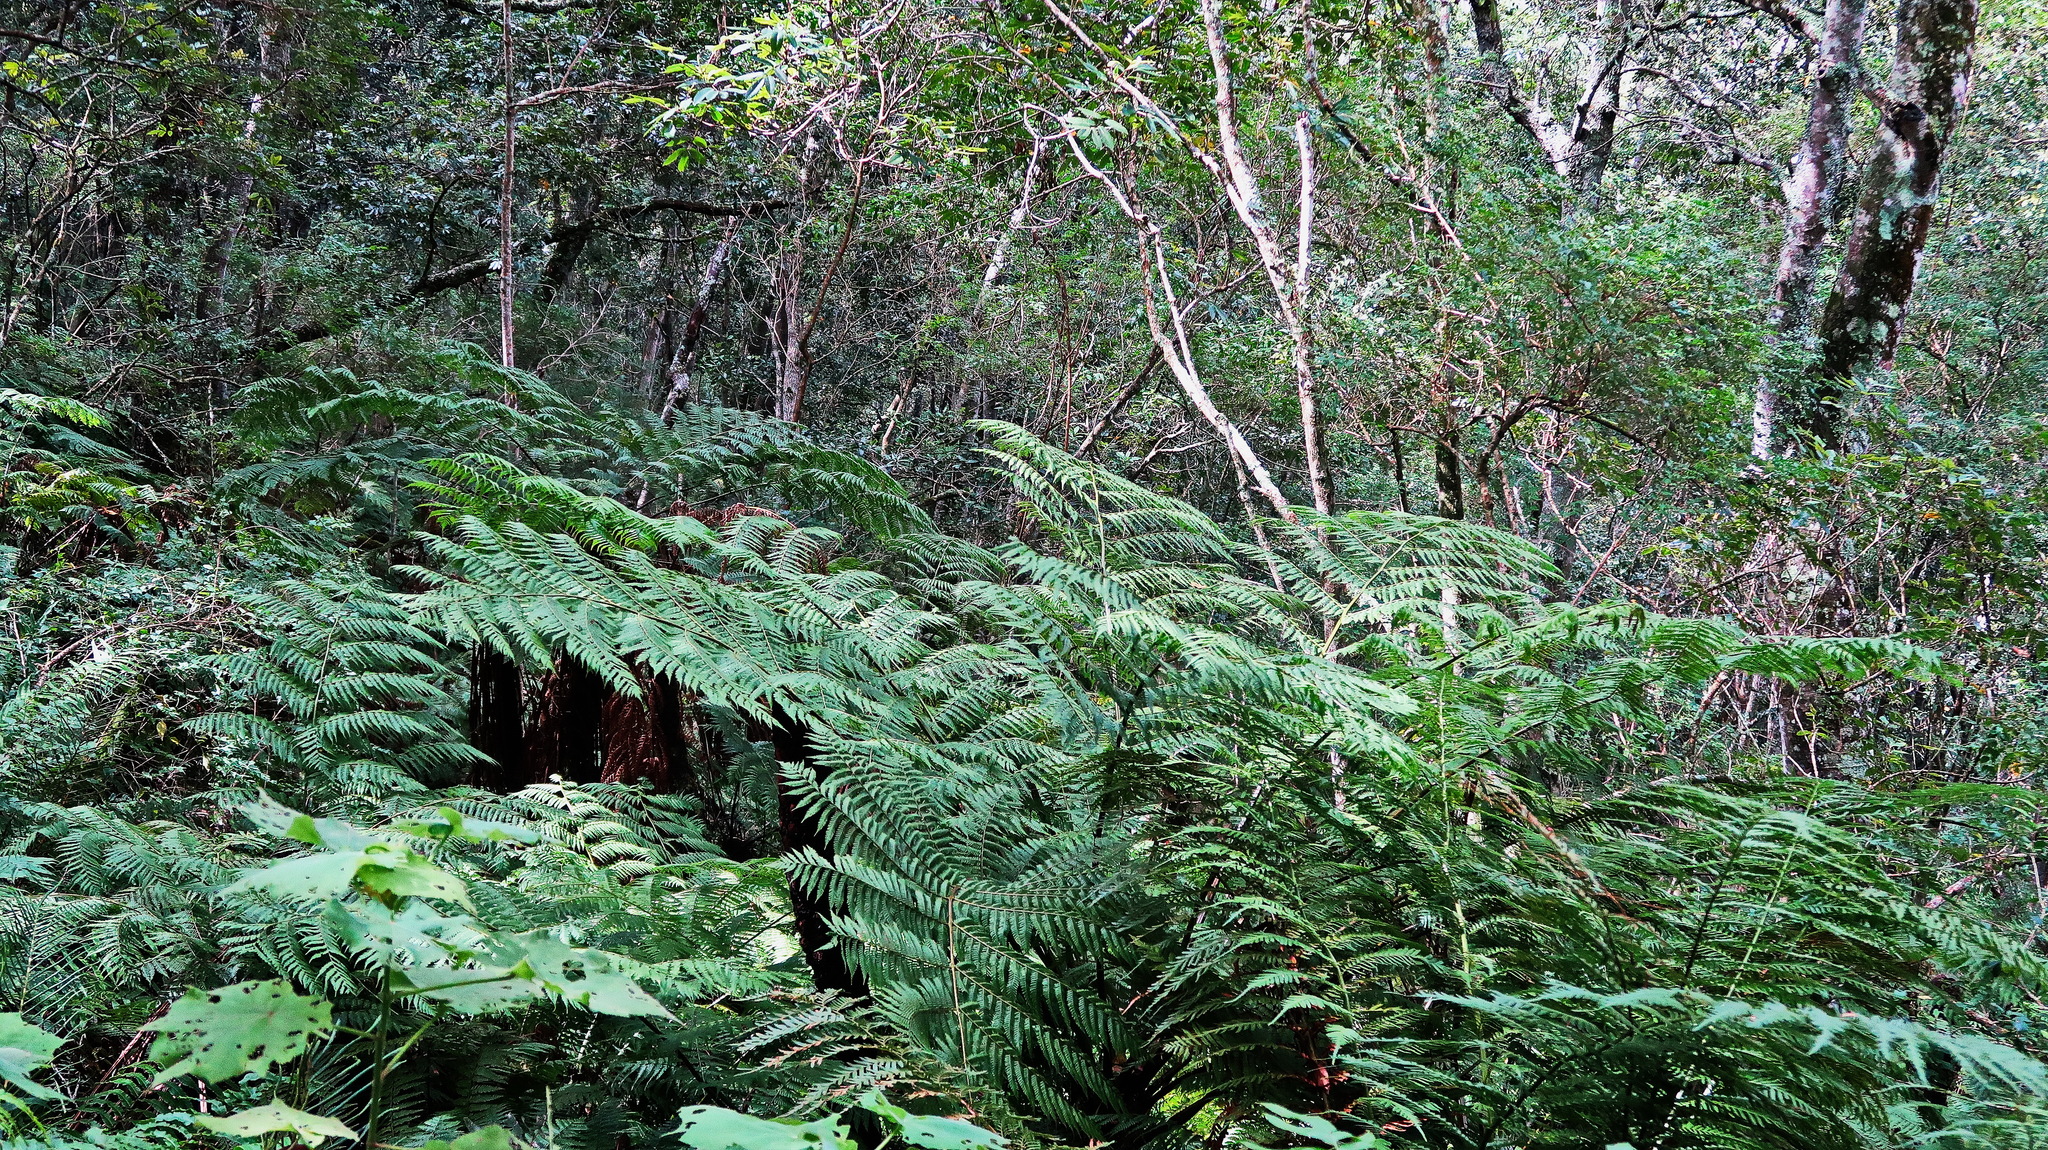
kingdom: Plantae
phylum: Tracheophyta
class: Polypodiopsida
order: Cyatheales
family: Cyatheaceae
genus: Gymnosphaera
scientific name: Gymnosphaera capensis
